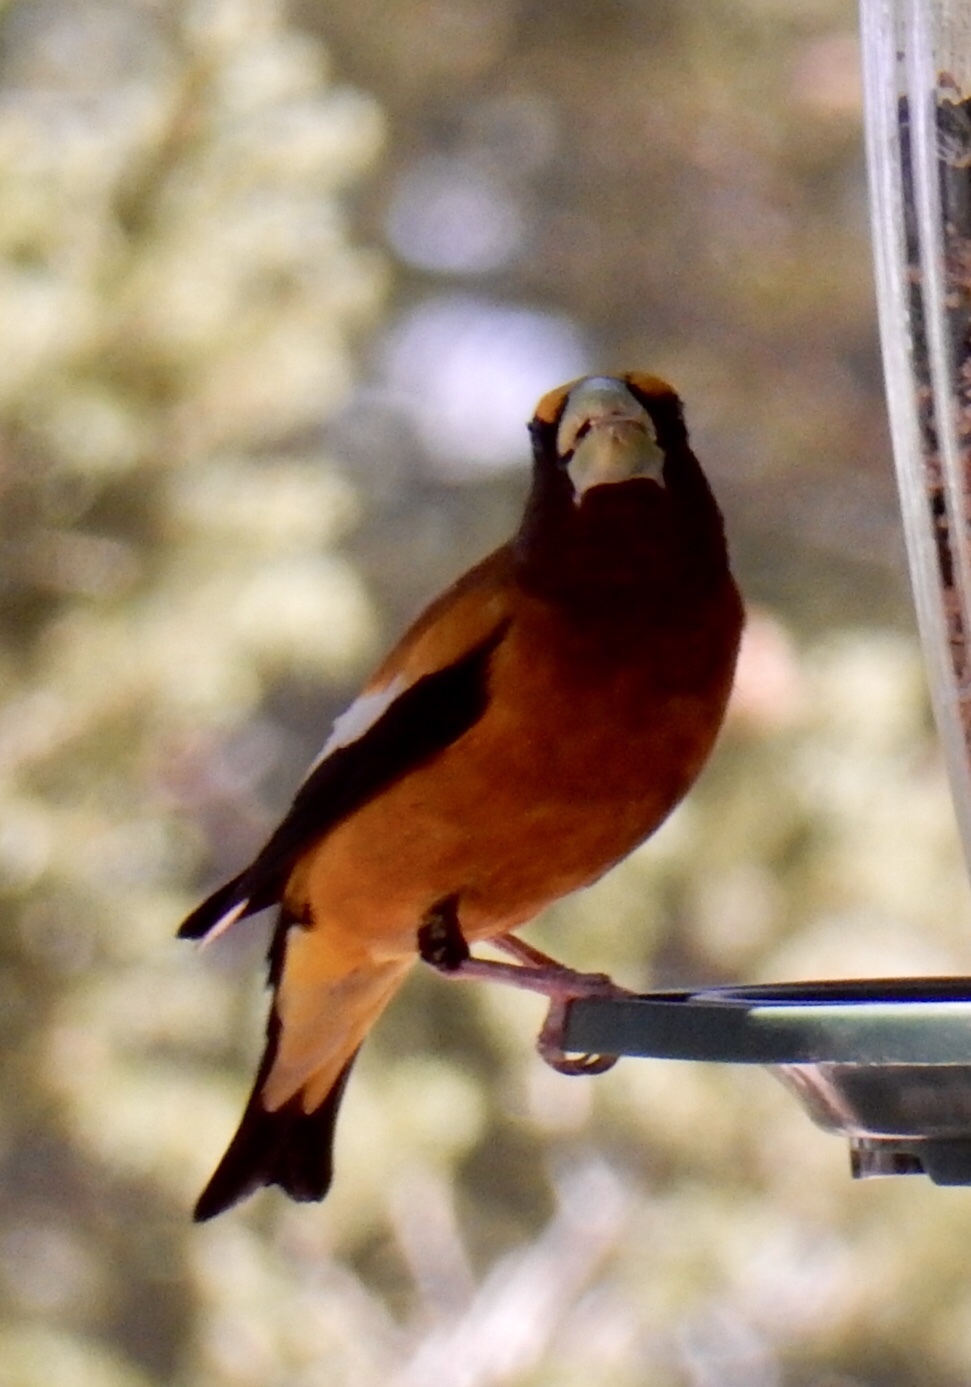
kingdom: Animalia
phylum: Chordata
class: Aves
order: Passeriformes
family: Fringillidae
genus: Hesperiphona
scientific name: Hesperiphona vespertina
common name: Evening grosbeak
